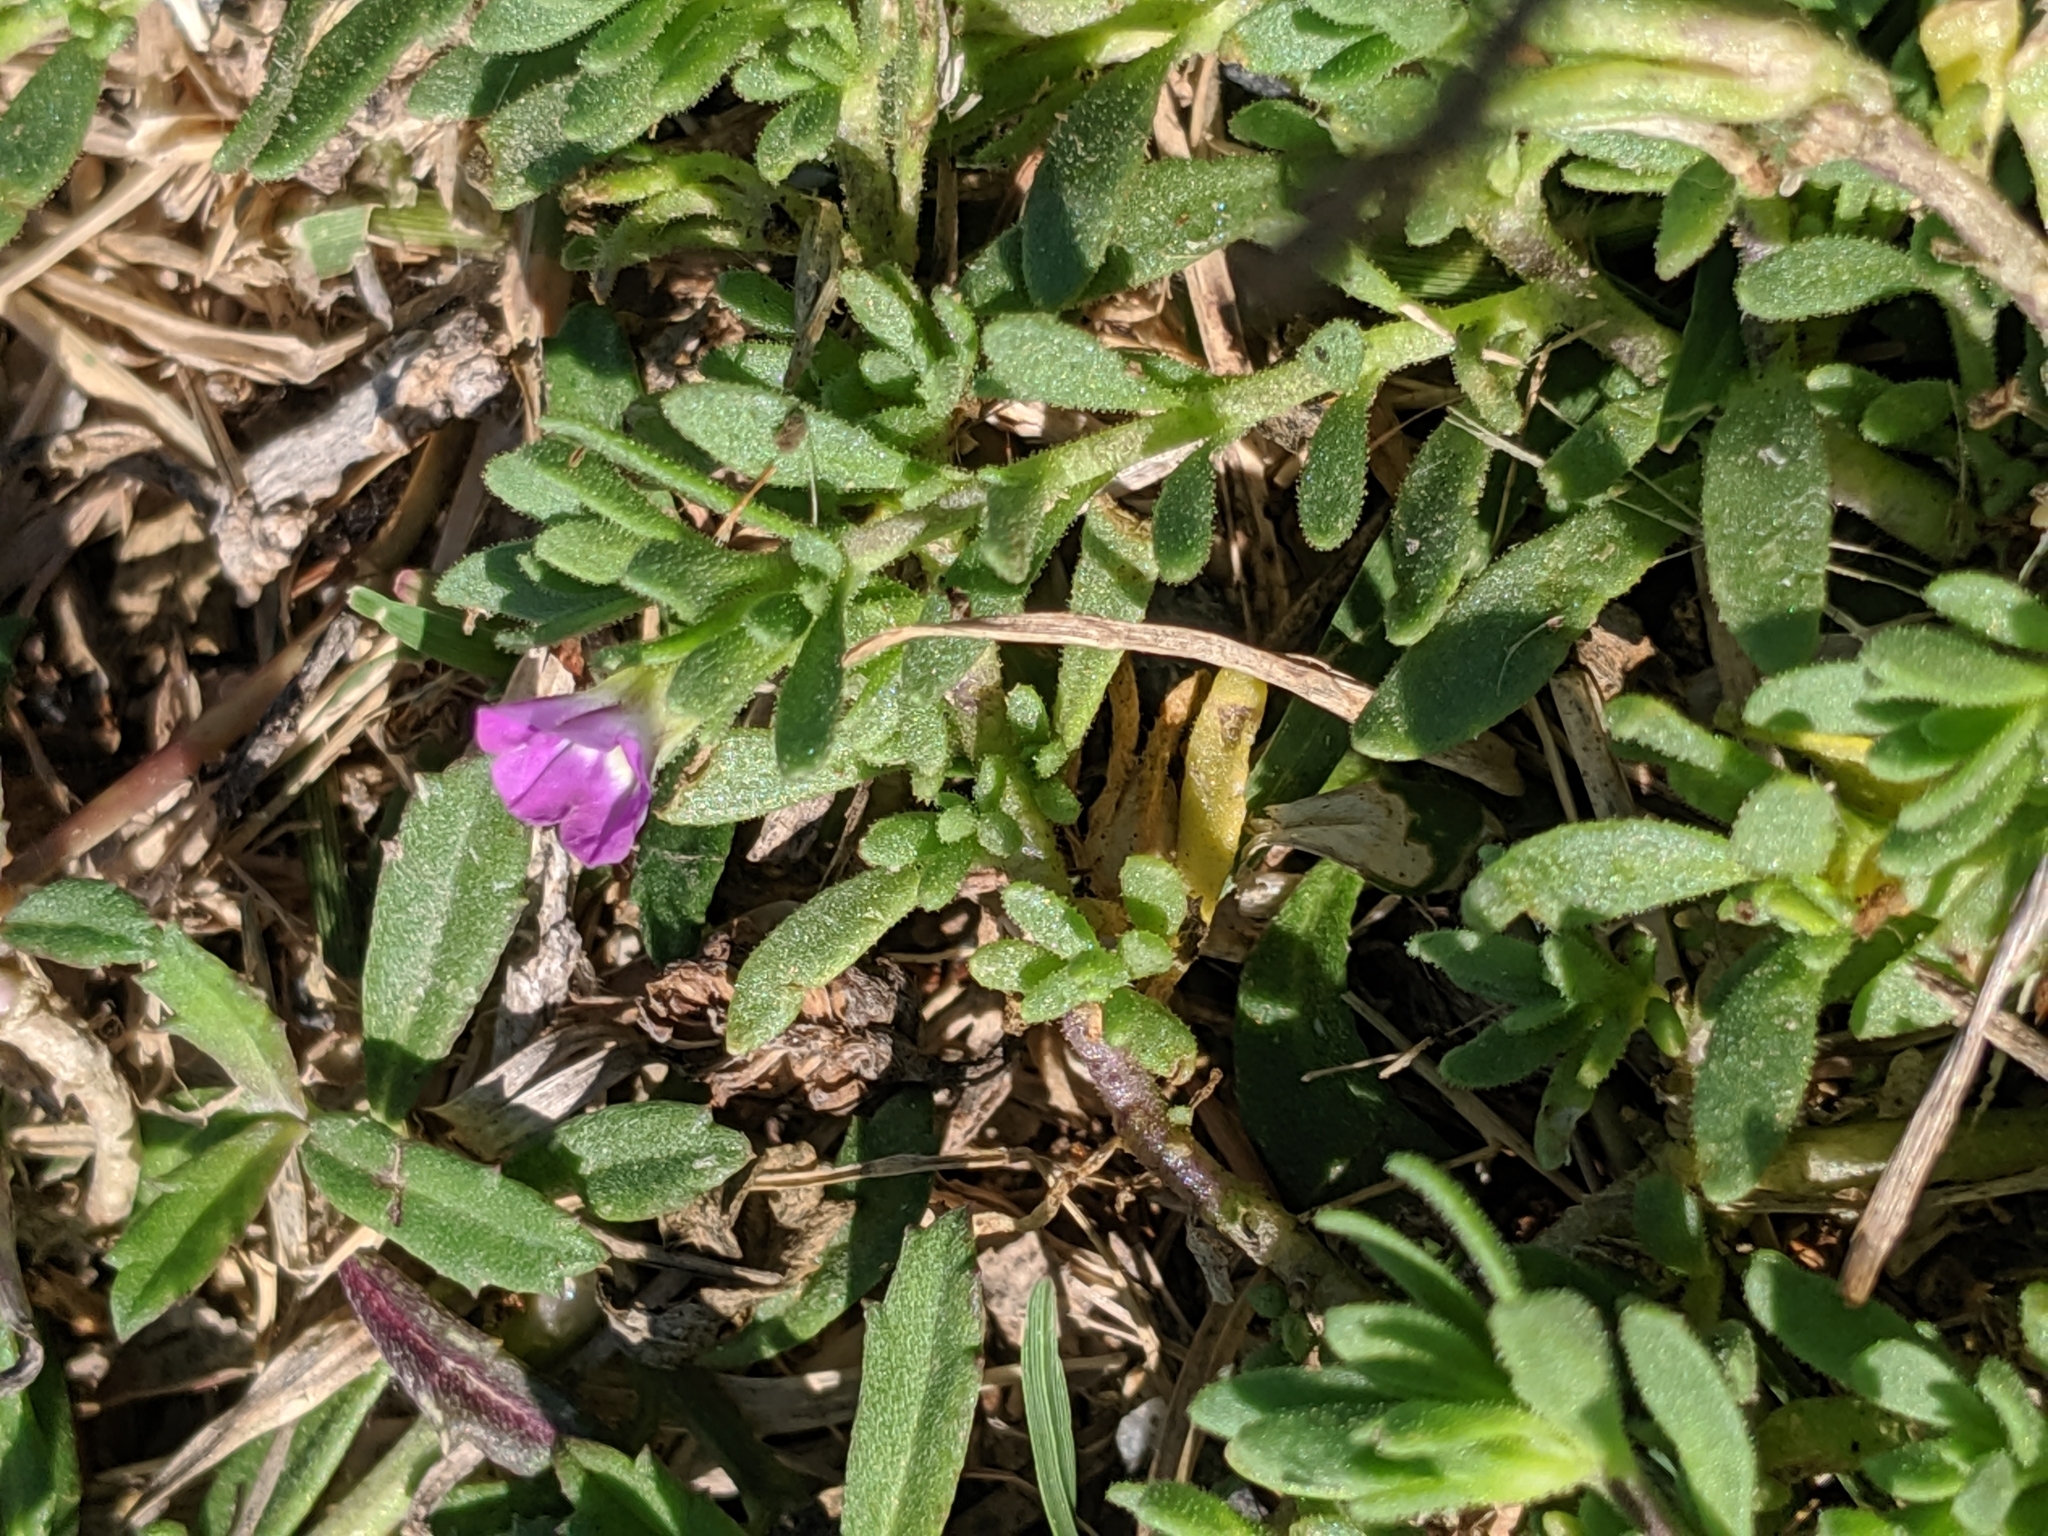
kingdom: Plantae
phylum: Tracheophyta
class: Magnoliopsida
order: Solanales
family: Solanaceae
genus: Calibrachoa
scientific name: Calibrachoa parviflora
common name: Seaside petunia
